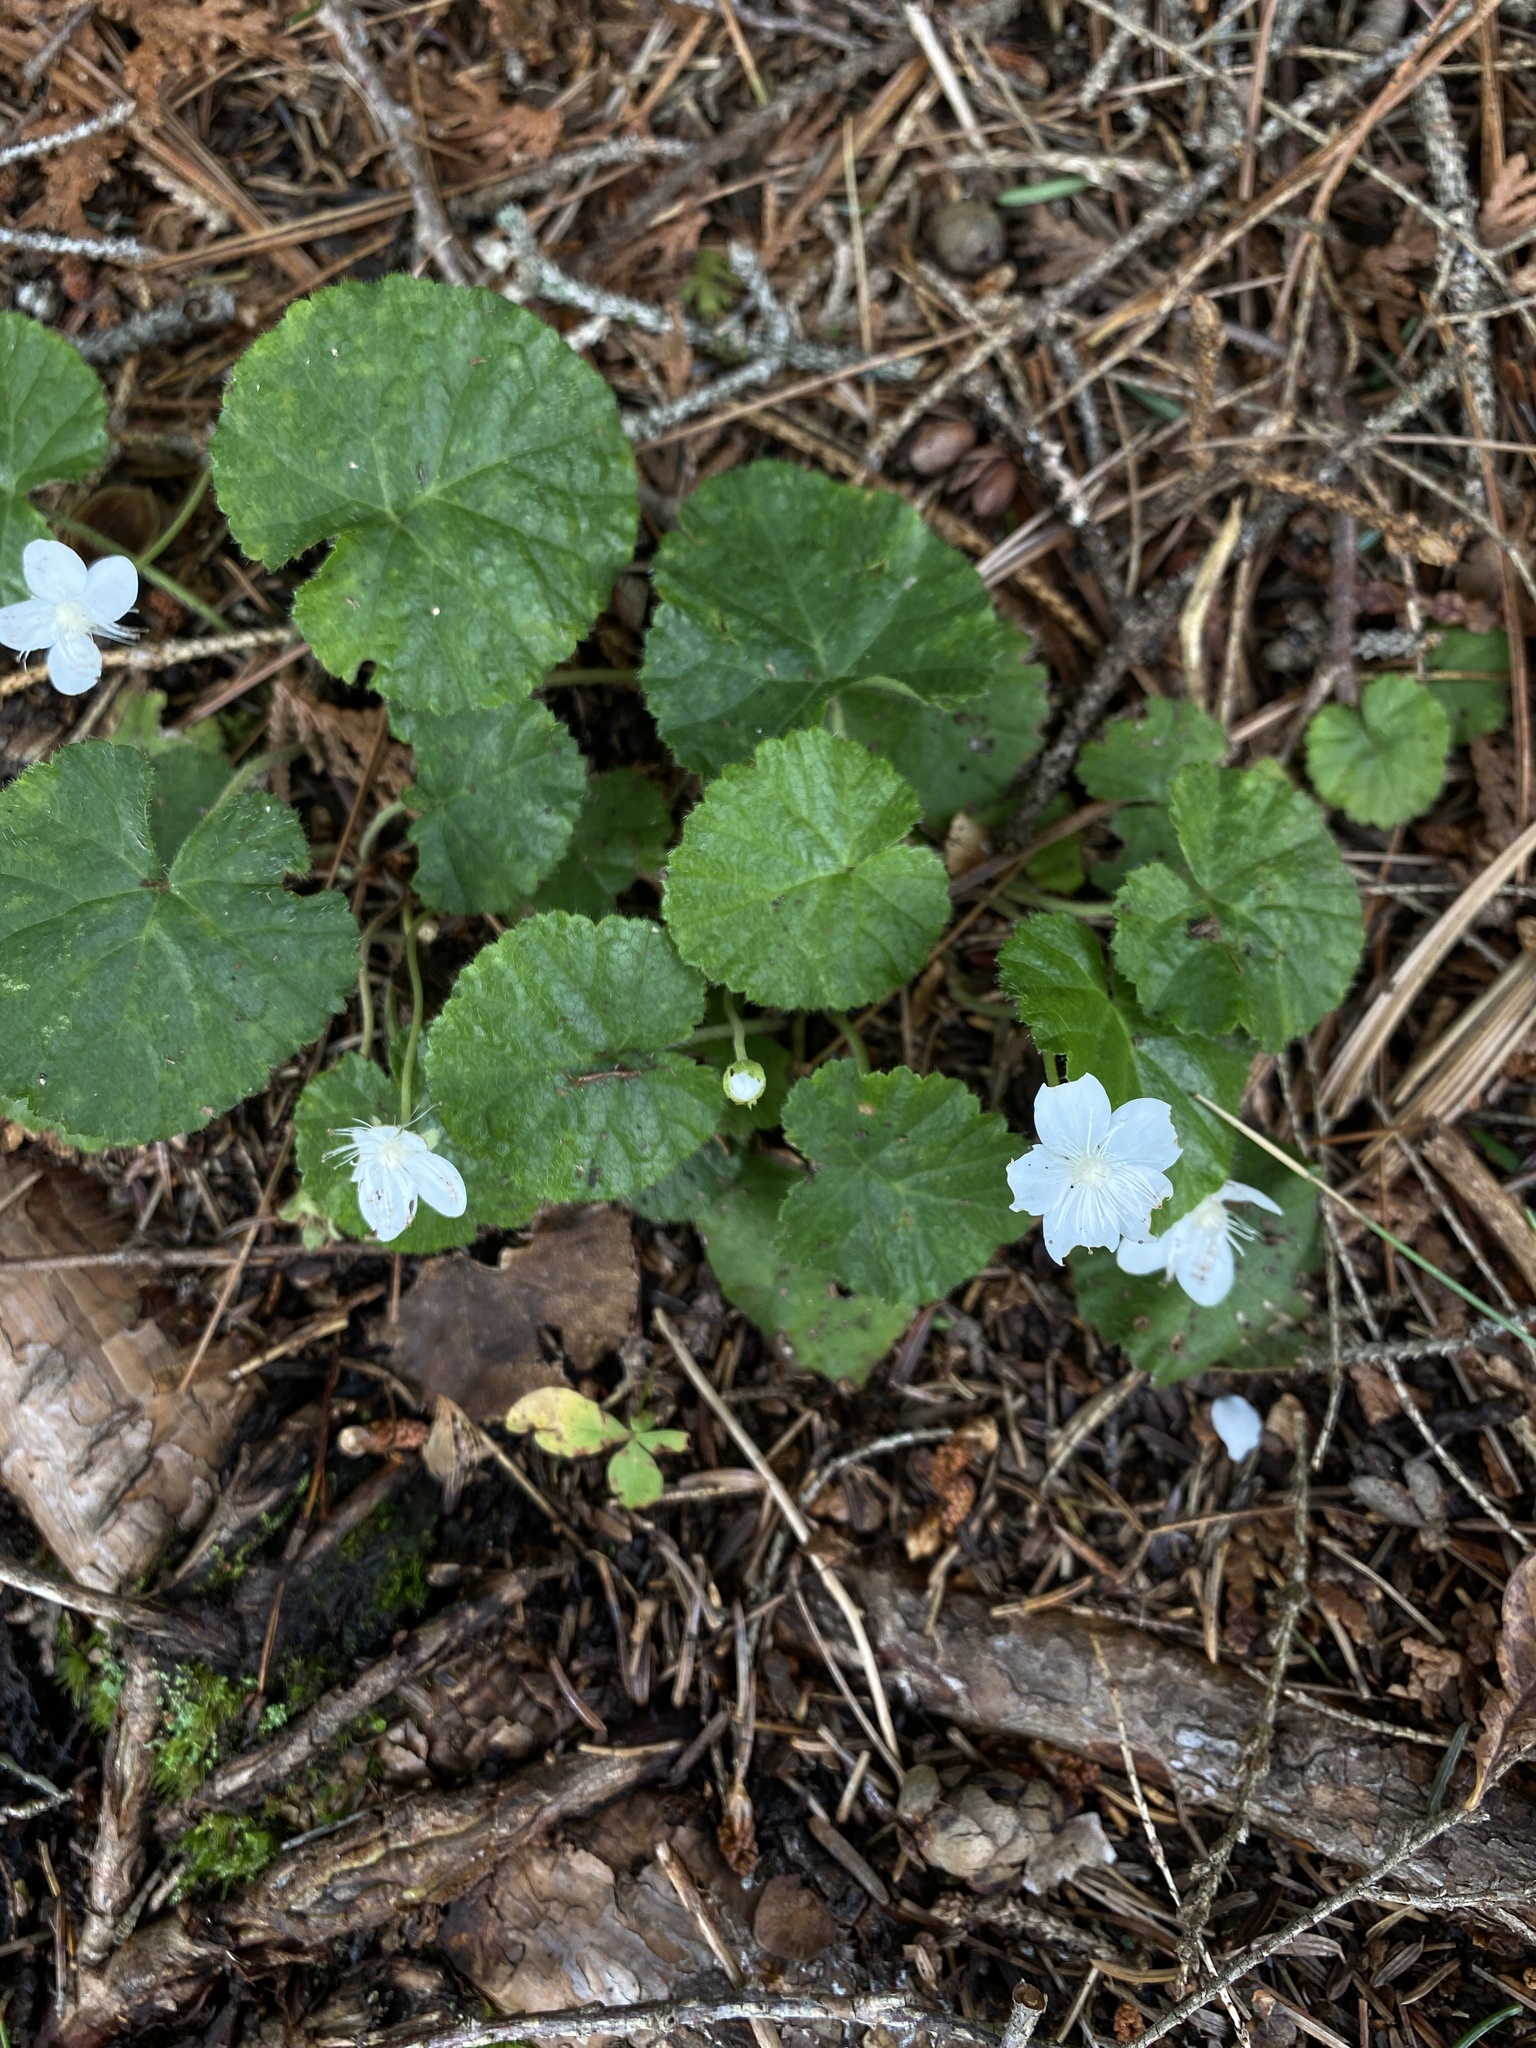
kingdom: Plantae
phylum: Tracheophyta
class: Magnoliopsida
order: Rosales
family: Rosaceae
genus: Dalibarda
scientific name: Dalibarda repens
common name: Dewdrop
